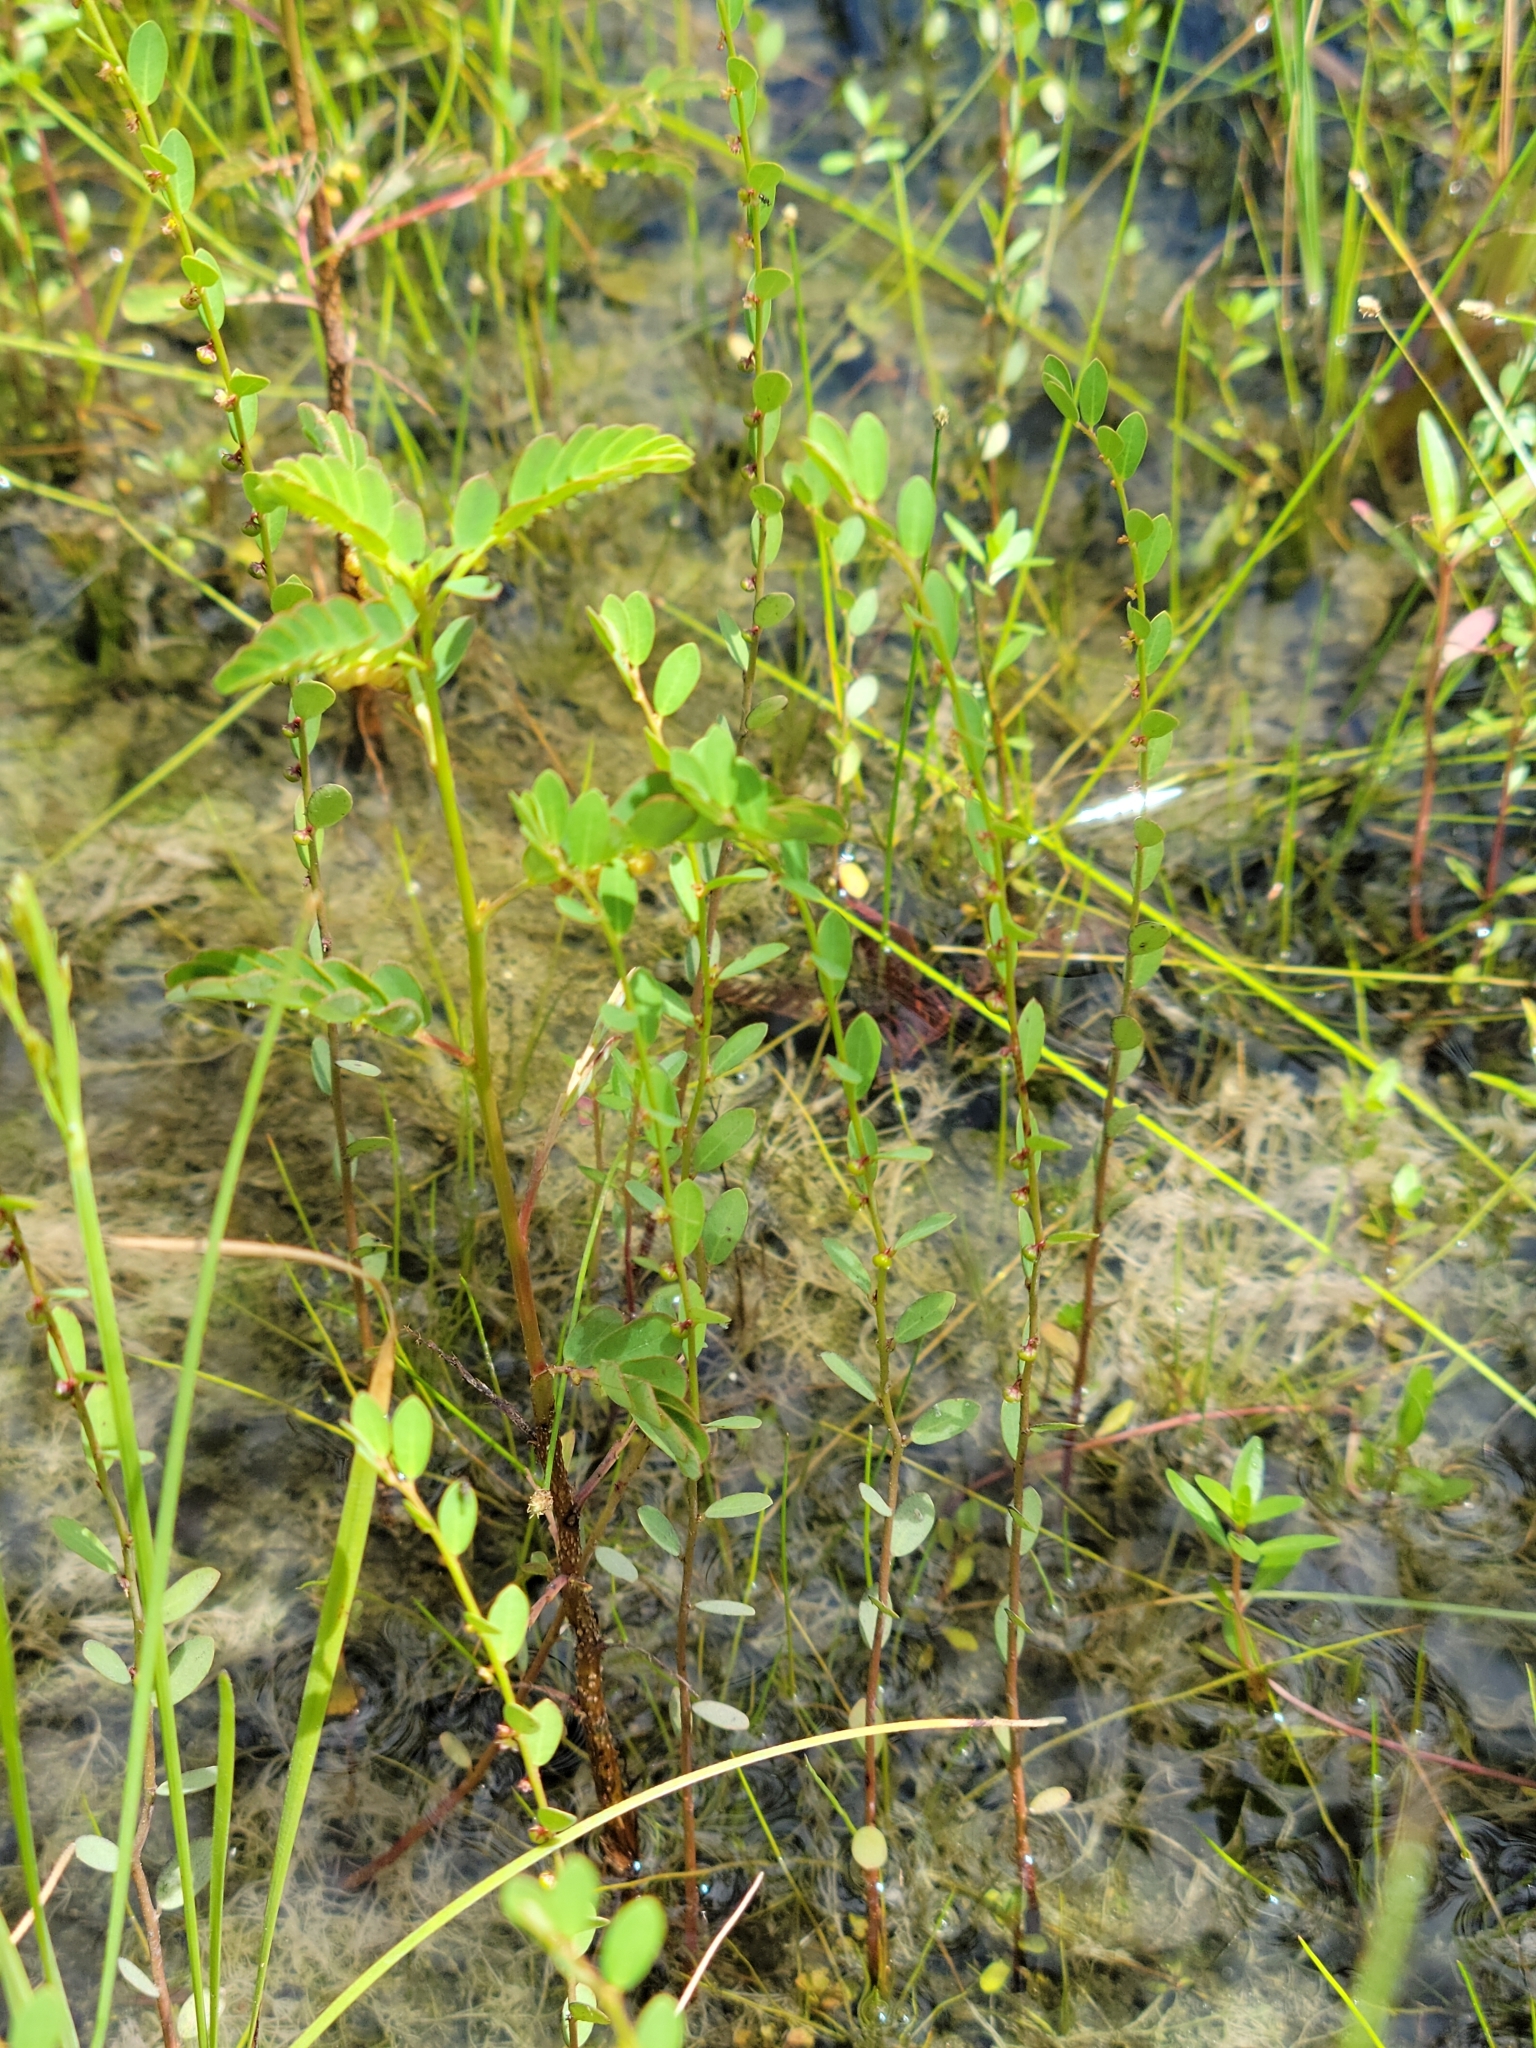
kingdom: Plantae
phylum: Tracheophyta
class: Magnoliopsida
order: Malpighiales
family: Phyllanthaceae
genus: Phyllanthus
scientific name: Phyllanthus caroliniensis
